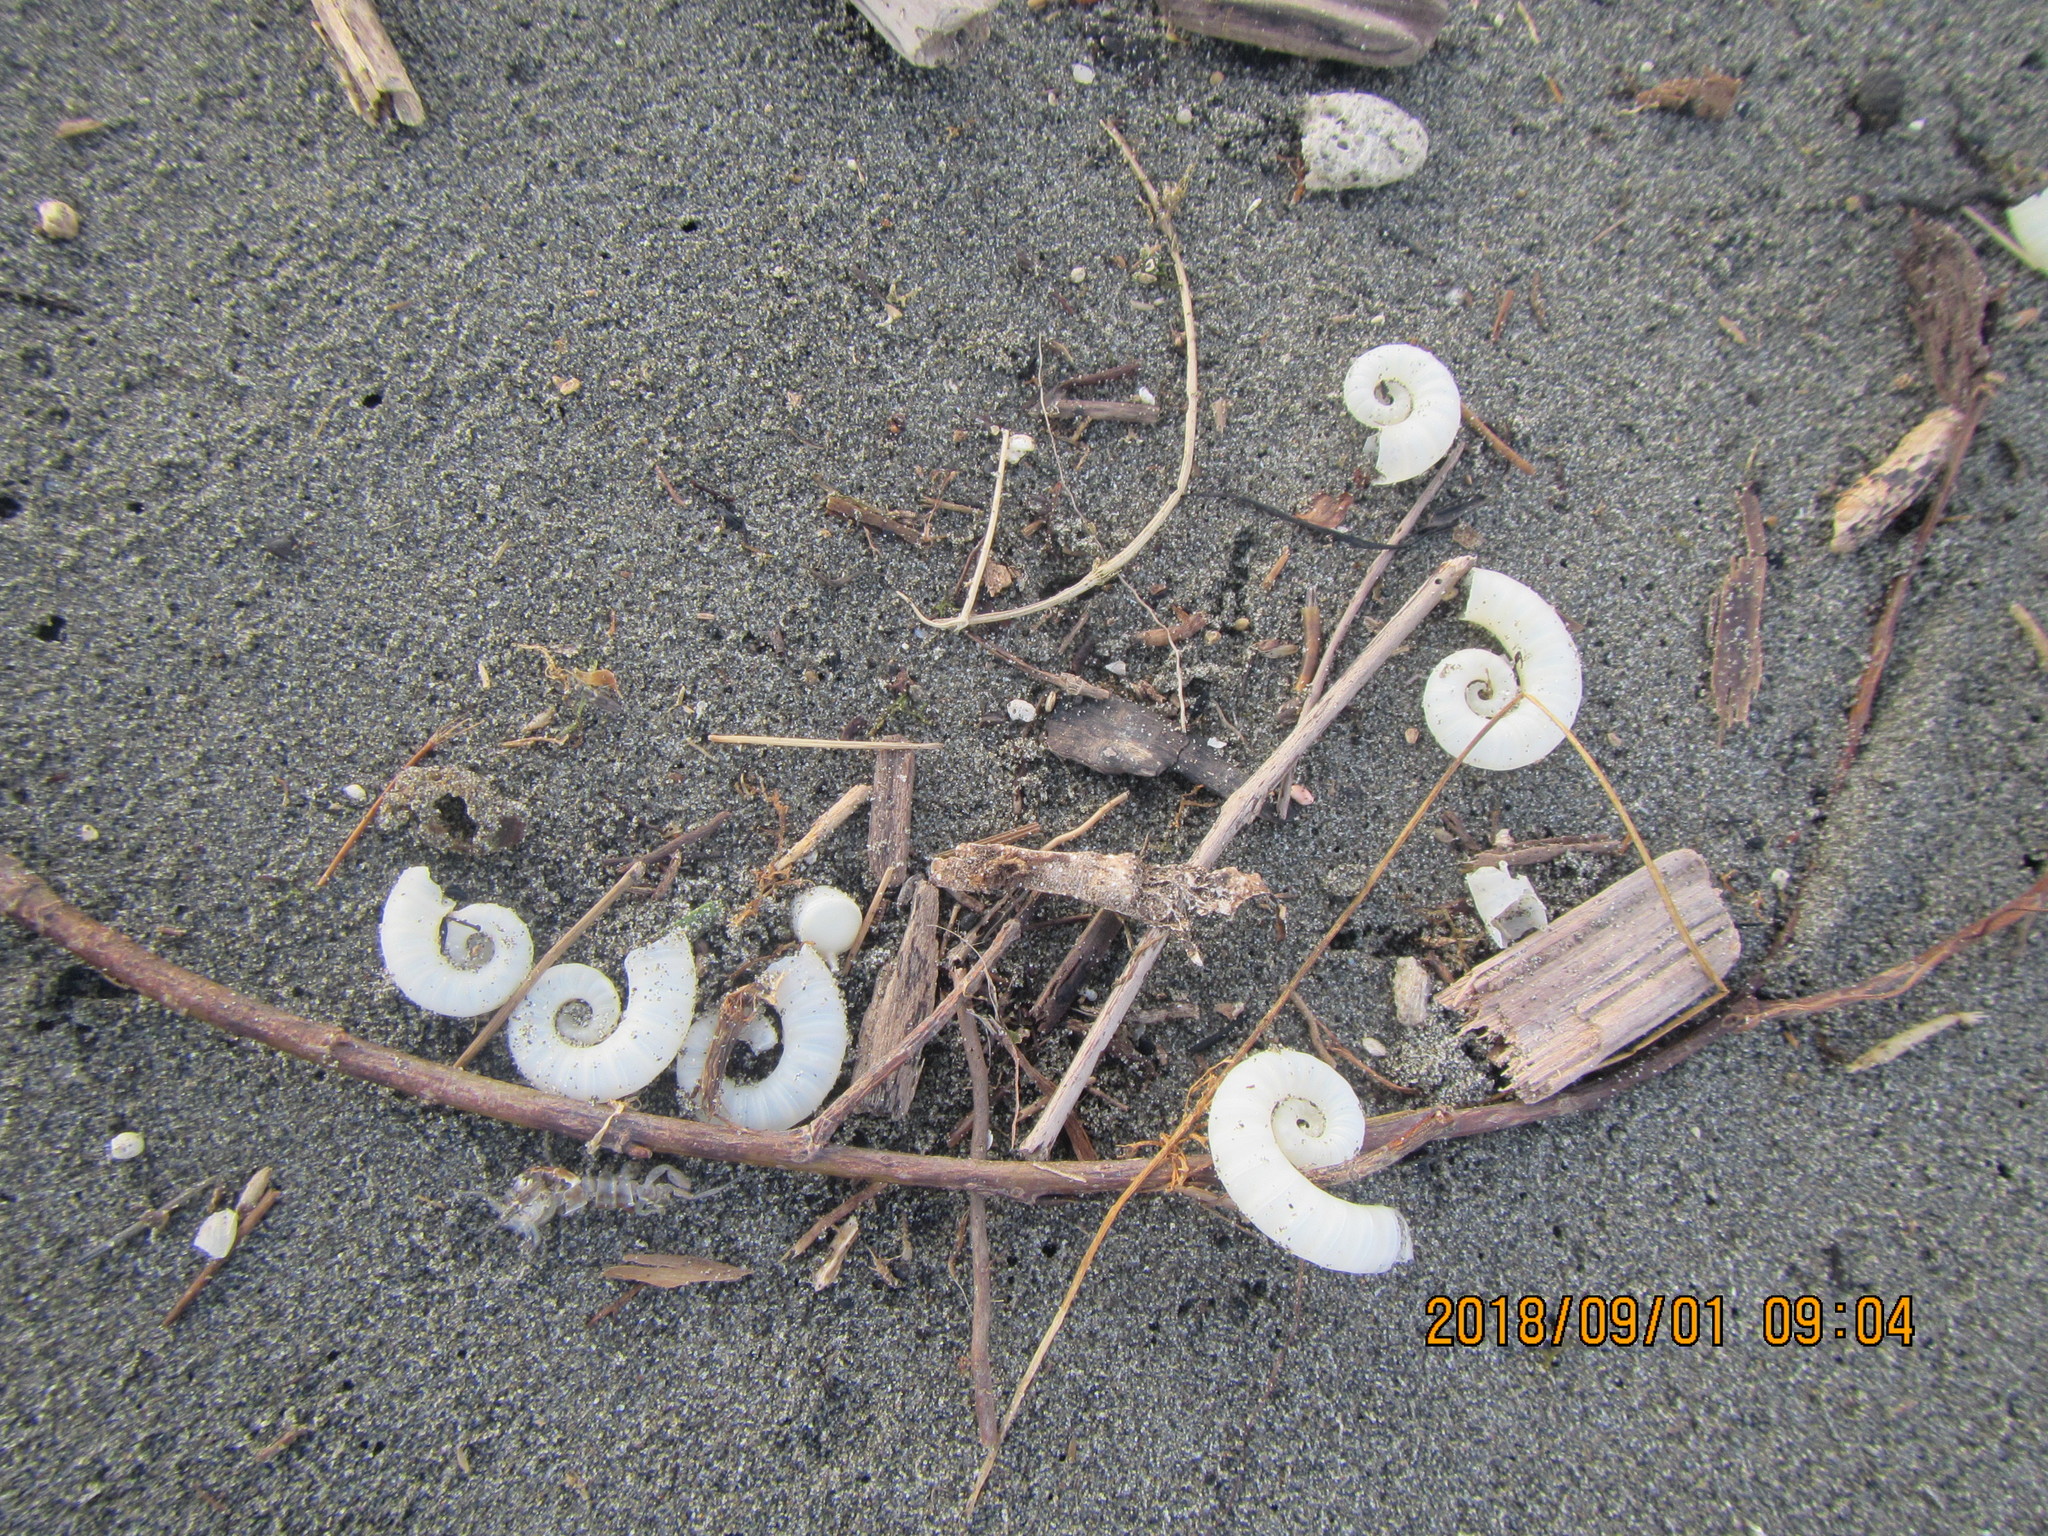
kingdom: Animalia
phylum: Mollusca
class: Cephalopoda
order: Spirulida
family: Spirulidae
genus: Spirula
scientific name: Spirula spirula
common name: Ram's horn squid
